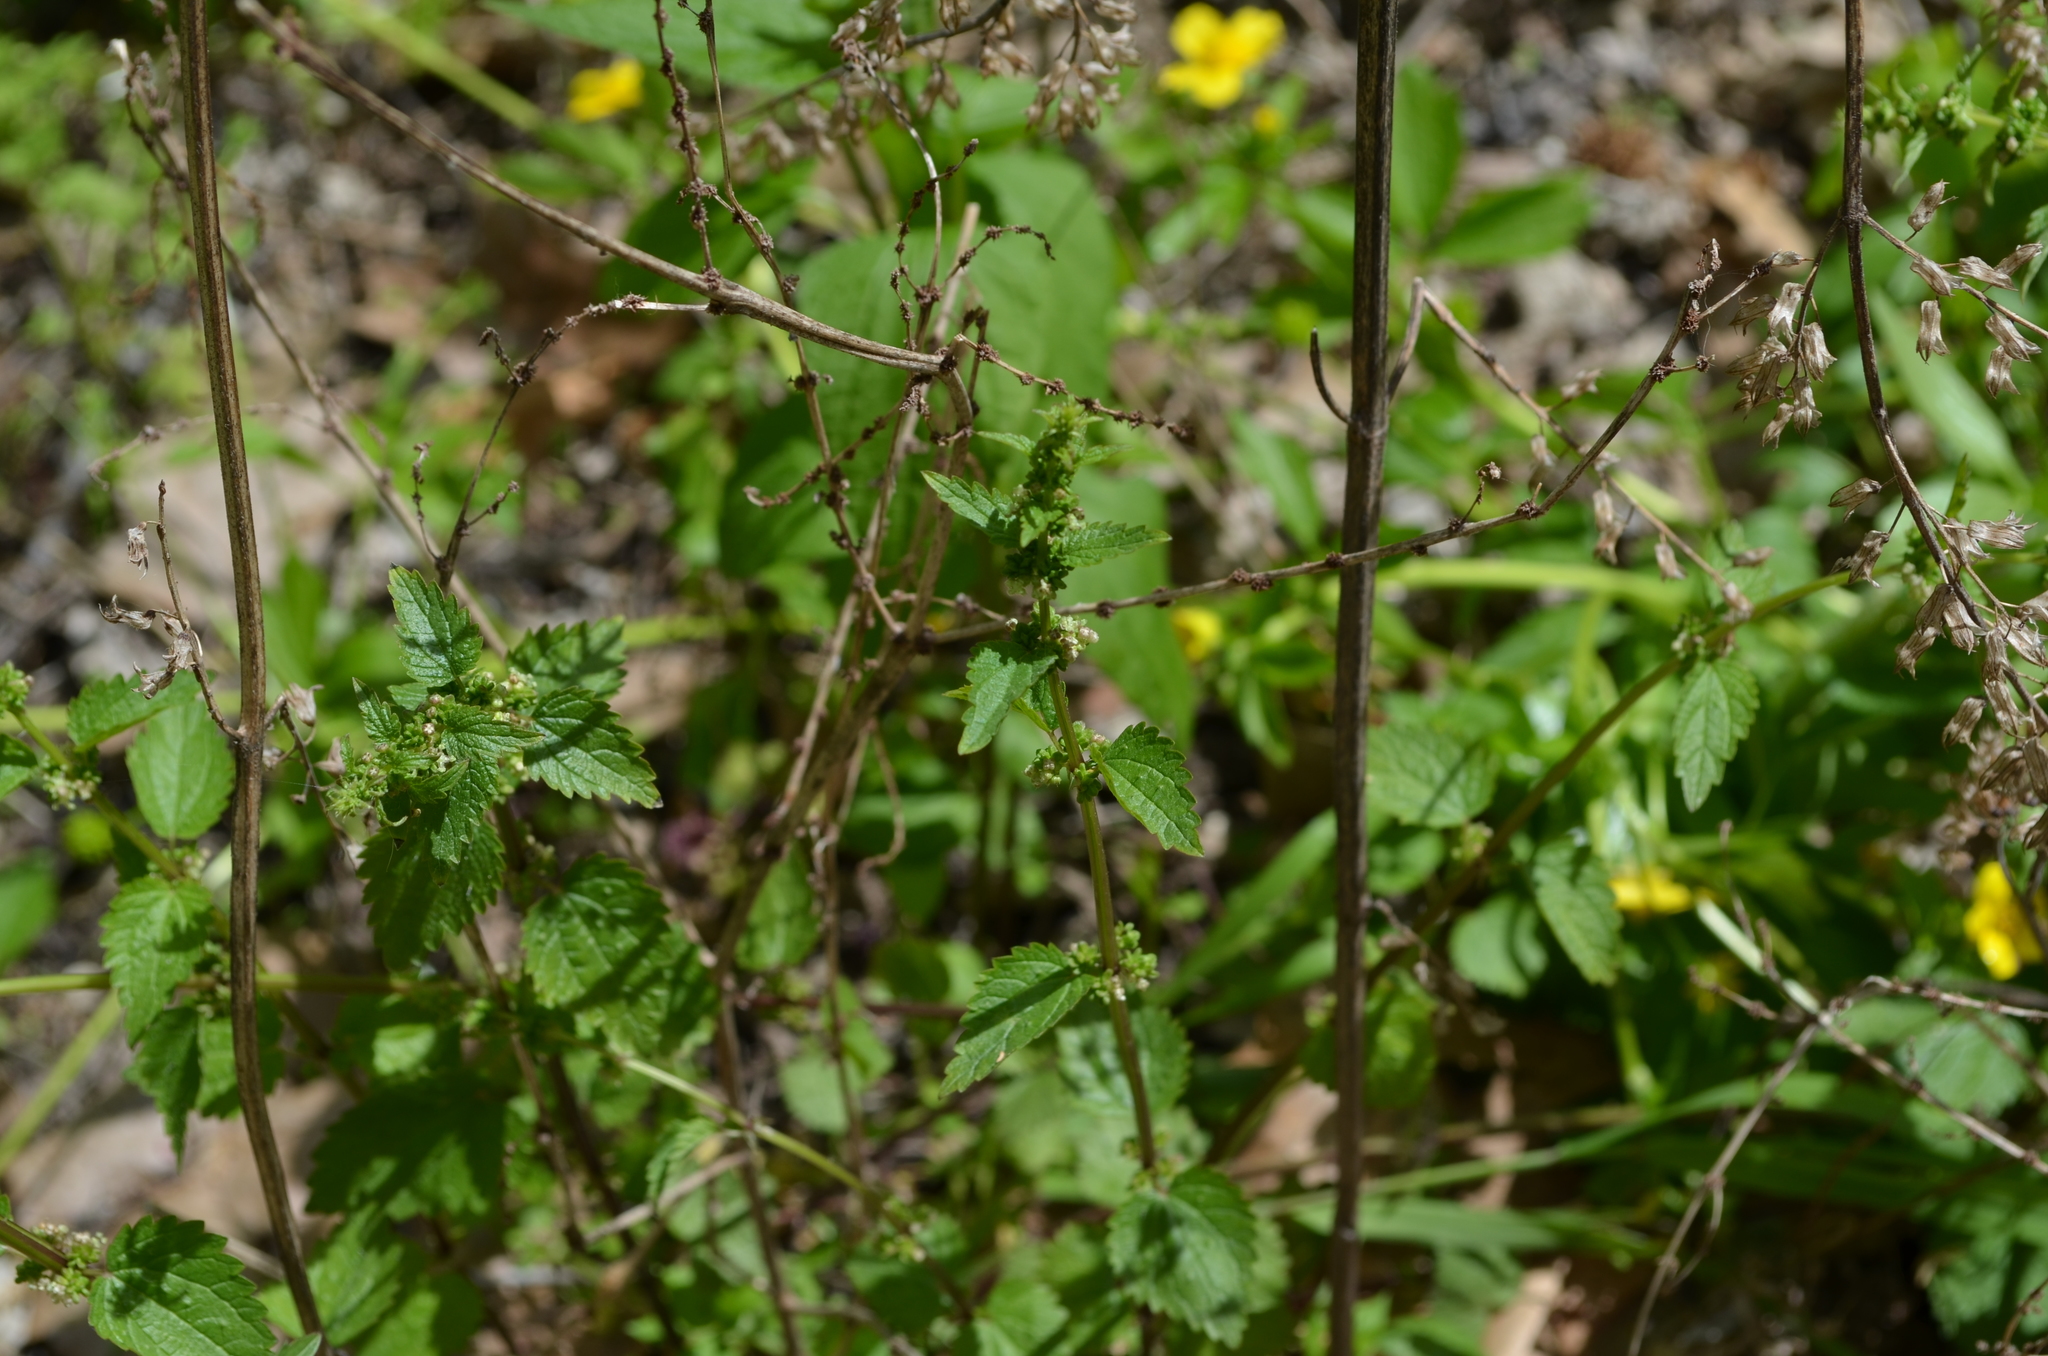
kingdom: Plantae
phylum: Tracheophyta
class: Magnoliopsida
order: Rosales
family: Urticaceae
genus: Urtica
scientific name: Urtica chamaedryoides
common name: Heart-leaf nettle
